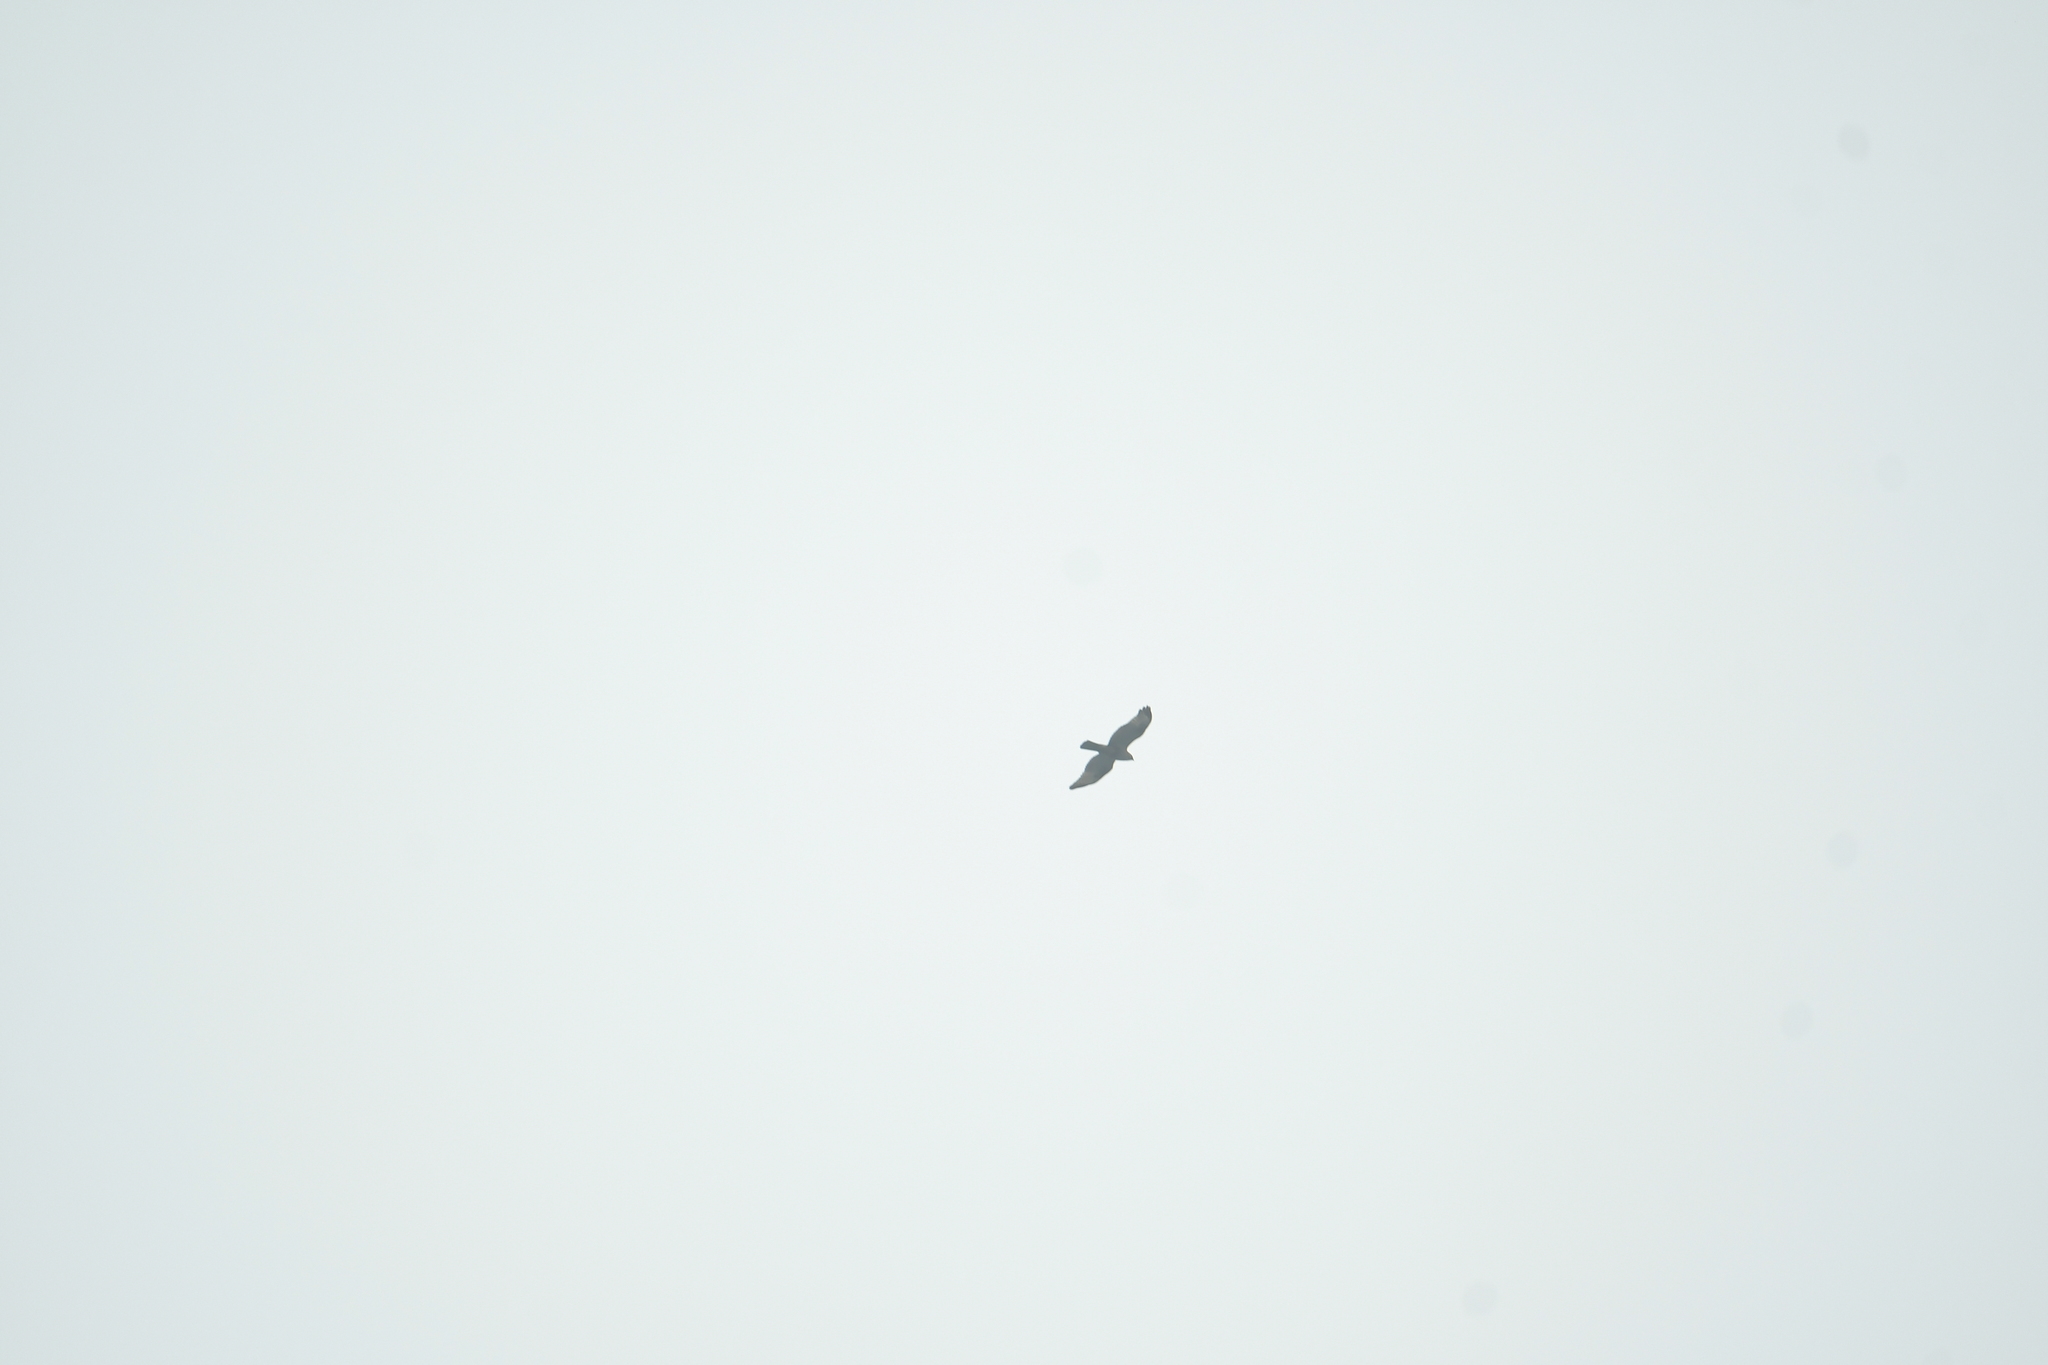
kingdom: Animalia
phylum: Chordata
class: Aves
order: Accipitriformes
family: Accipitridae
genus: Buteo
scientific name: Buteo japonicus
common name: Eastern buzzard
